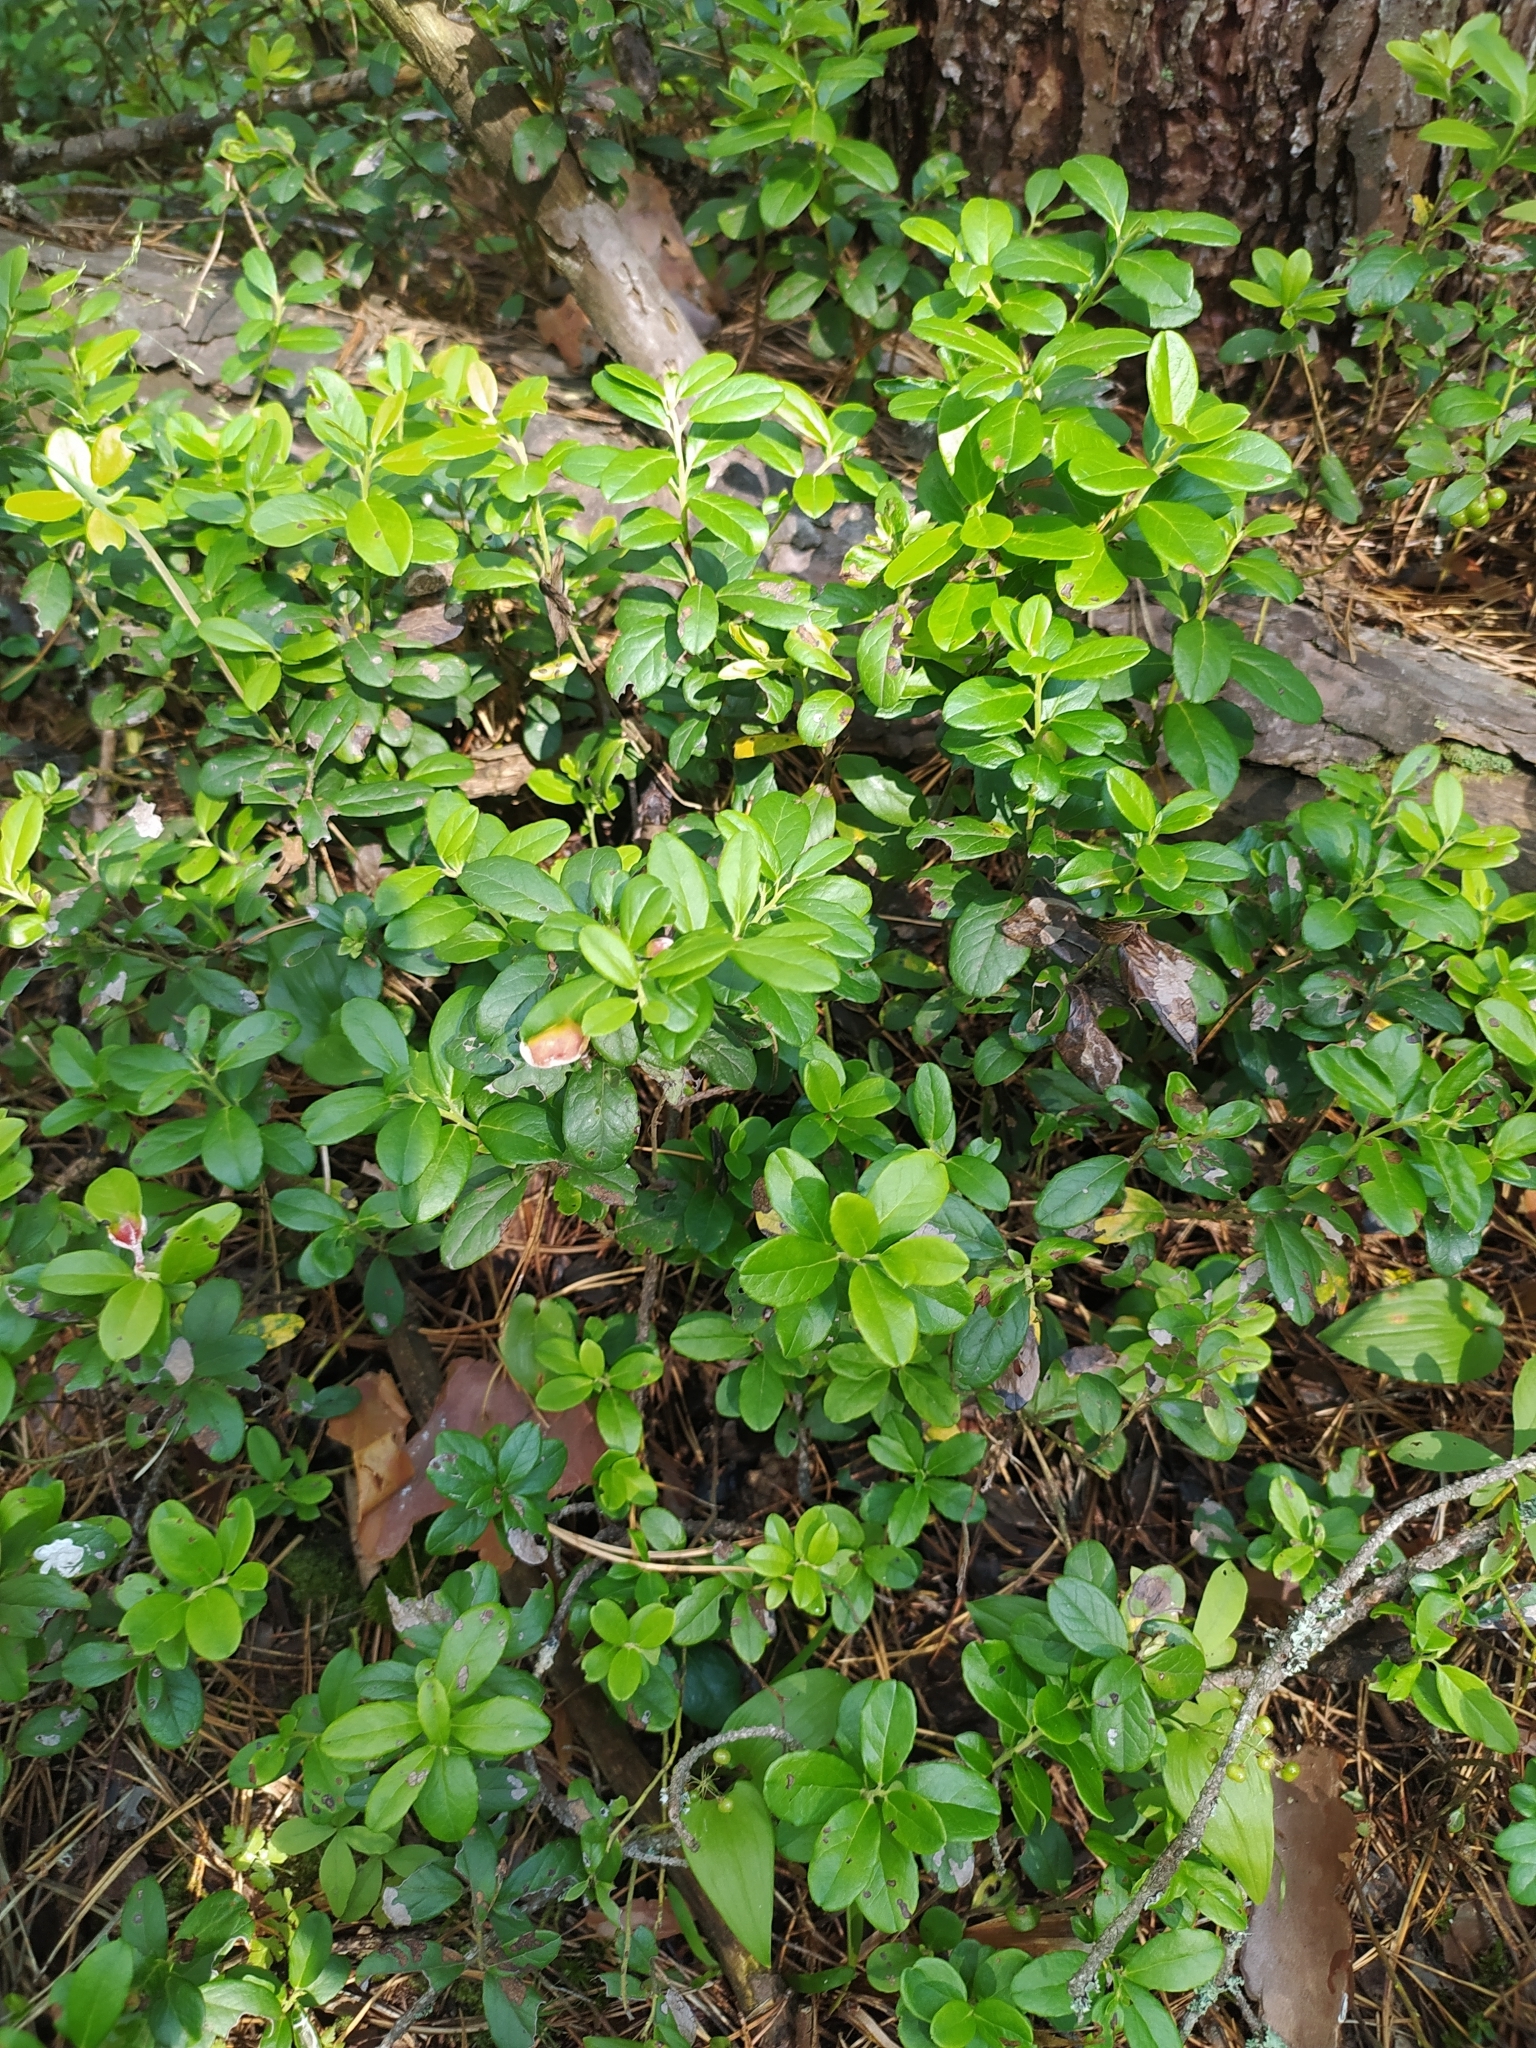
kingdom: Plantae
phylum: Tracheophyta
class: Magnoliopsida
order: Ericales
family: Ericaceae
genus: Vaccinium
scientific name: Vaccinium vitis-idaea
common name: Cowberry
